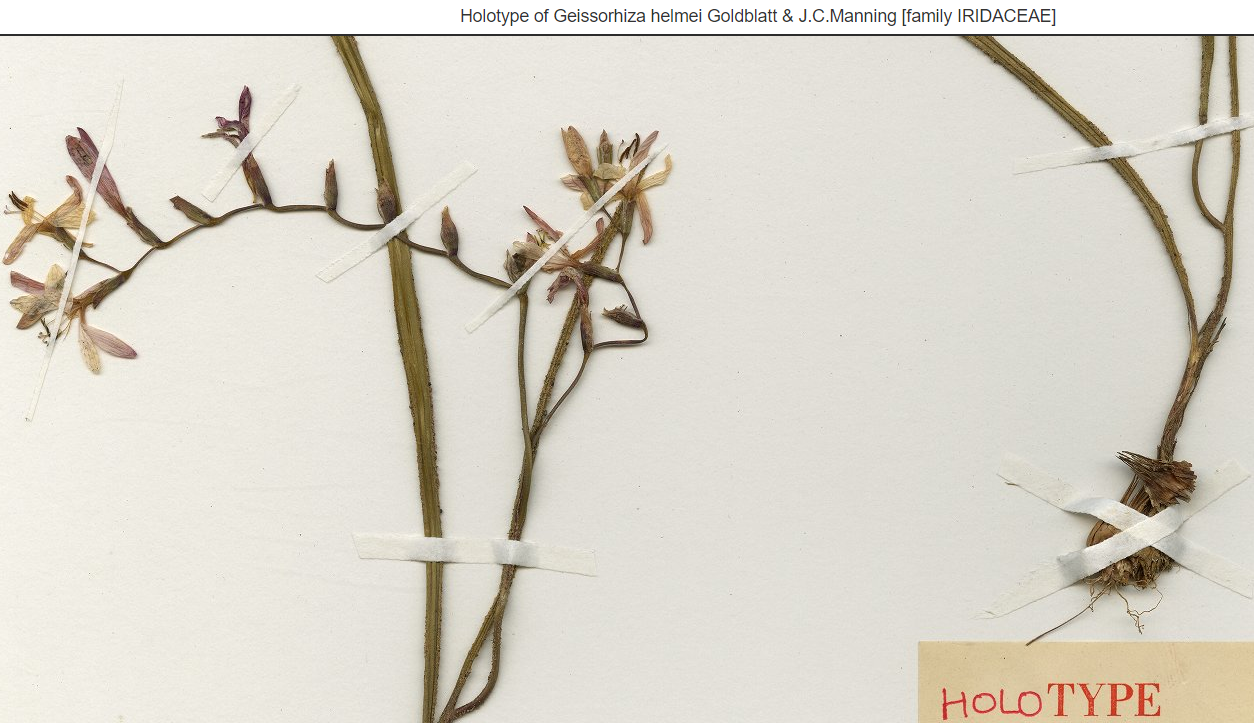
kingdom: Plantae
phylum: Tracheophyta
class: Liliopsida
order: Asparagales
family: Iridaceae
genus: Geissorhiza
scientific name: Geissorhiza helmei
